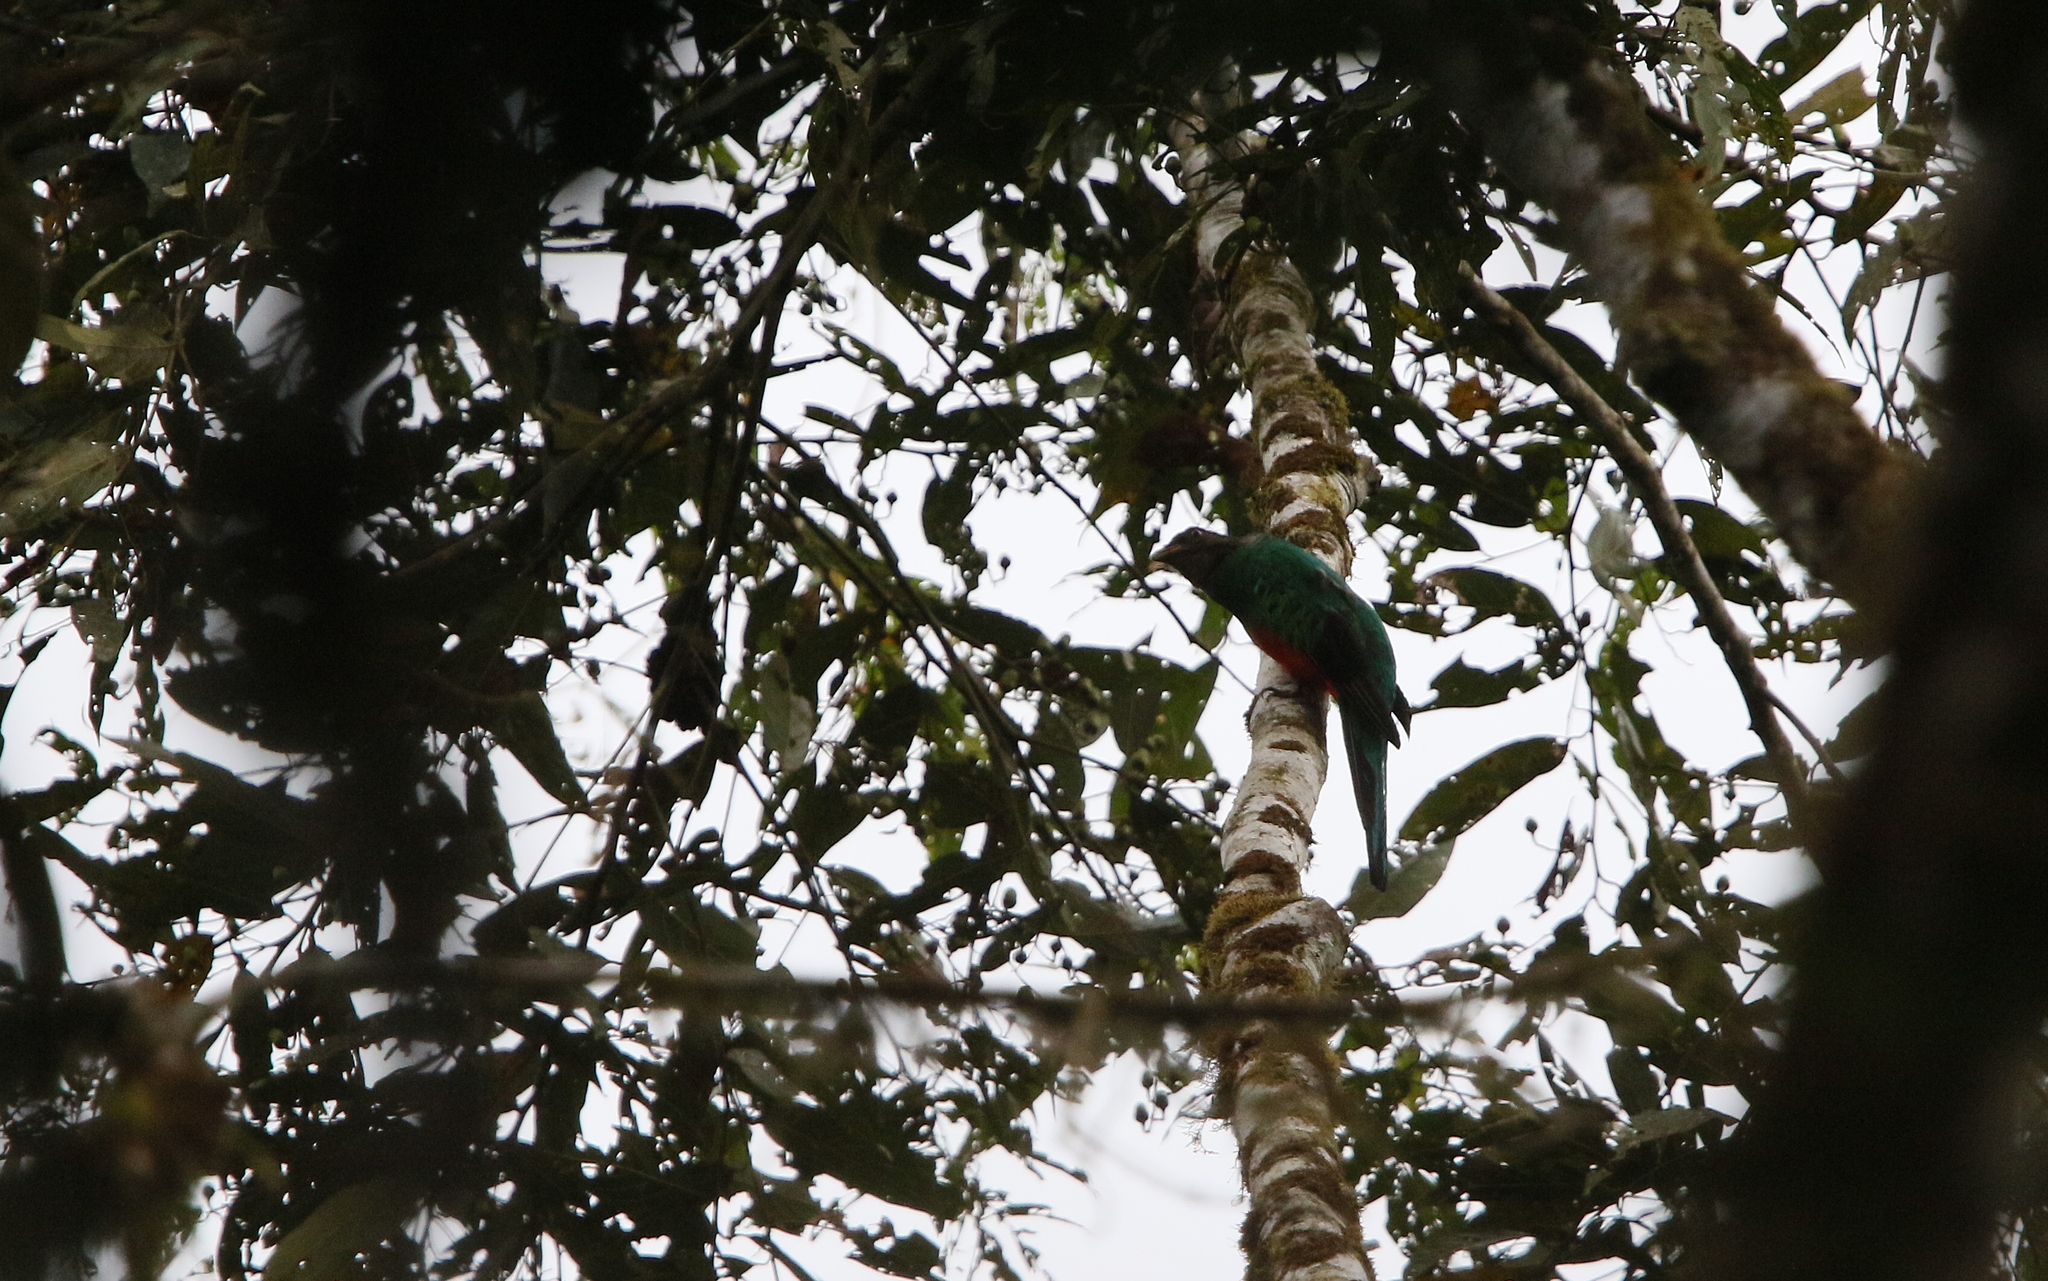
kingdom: Animalia
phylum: Chordata
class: Aves
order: Trogoniformes
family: Trogonidae
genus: Pharomachrus
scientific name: Pharomachrus auriceps
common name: Golden-headed quetzal
